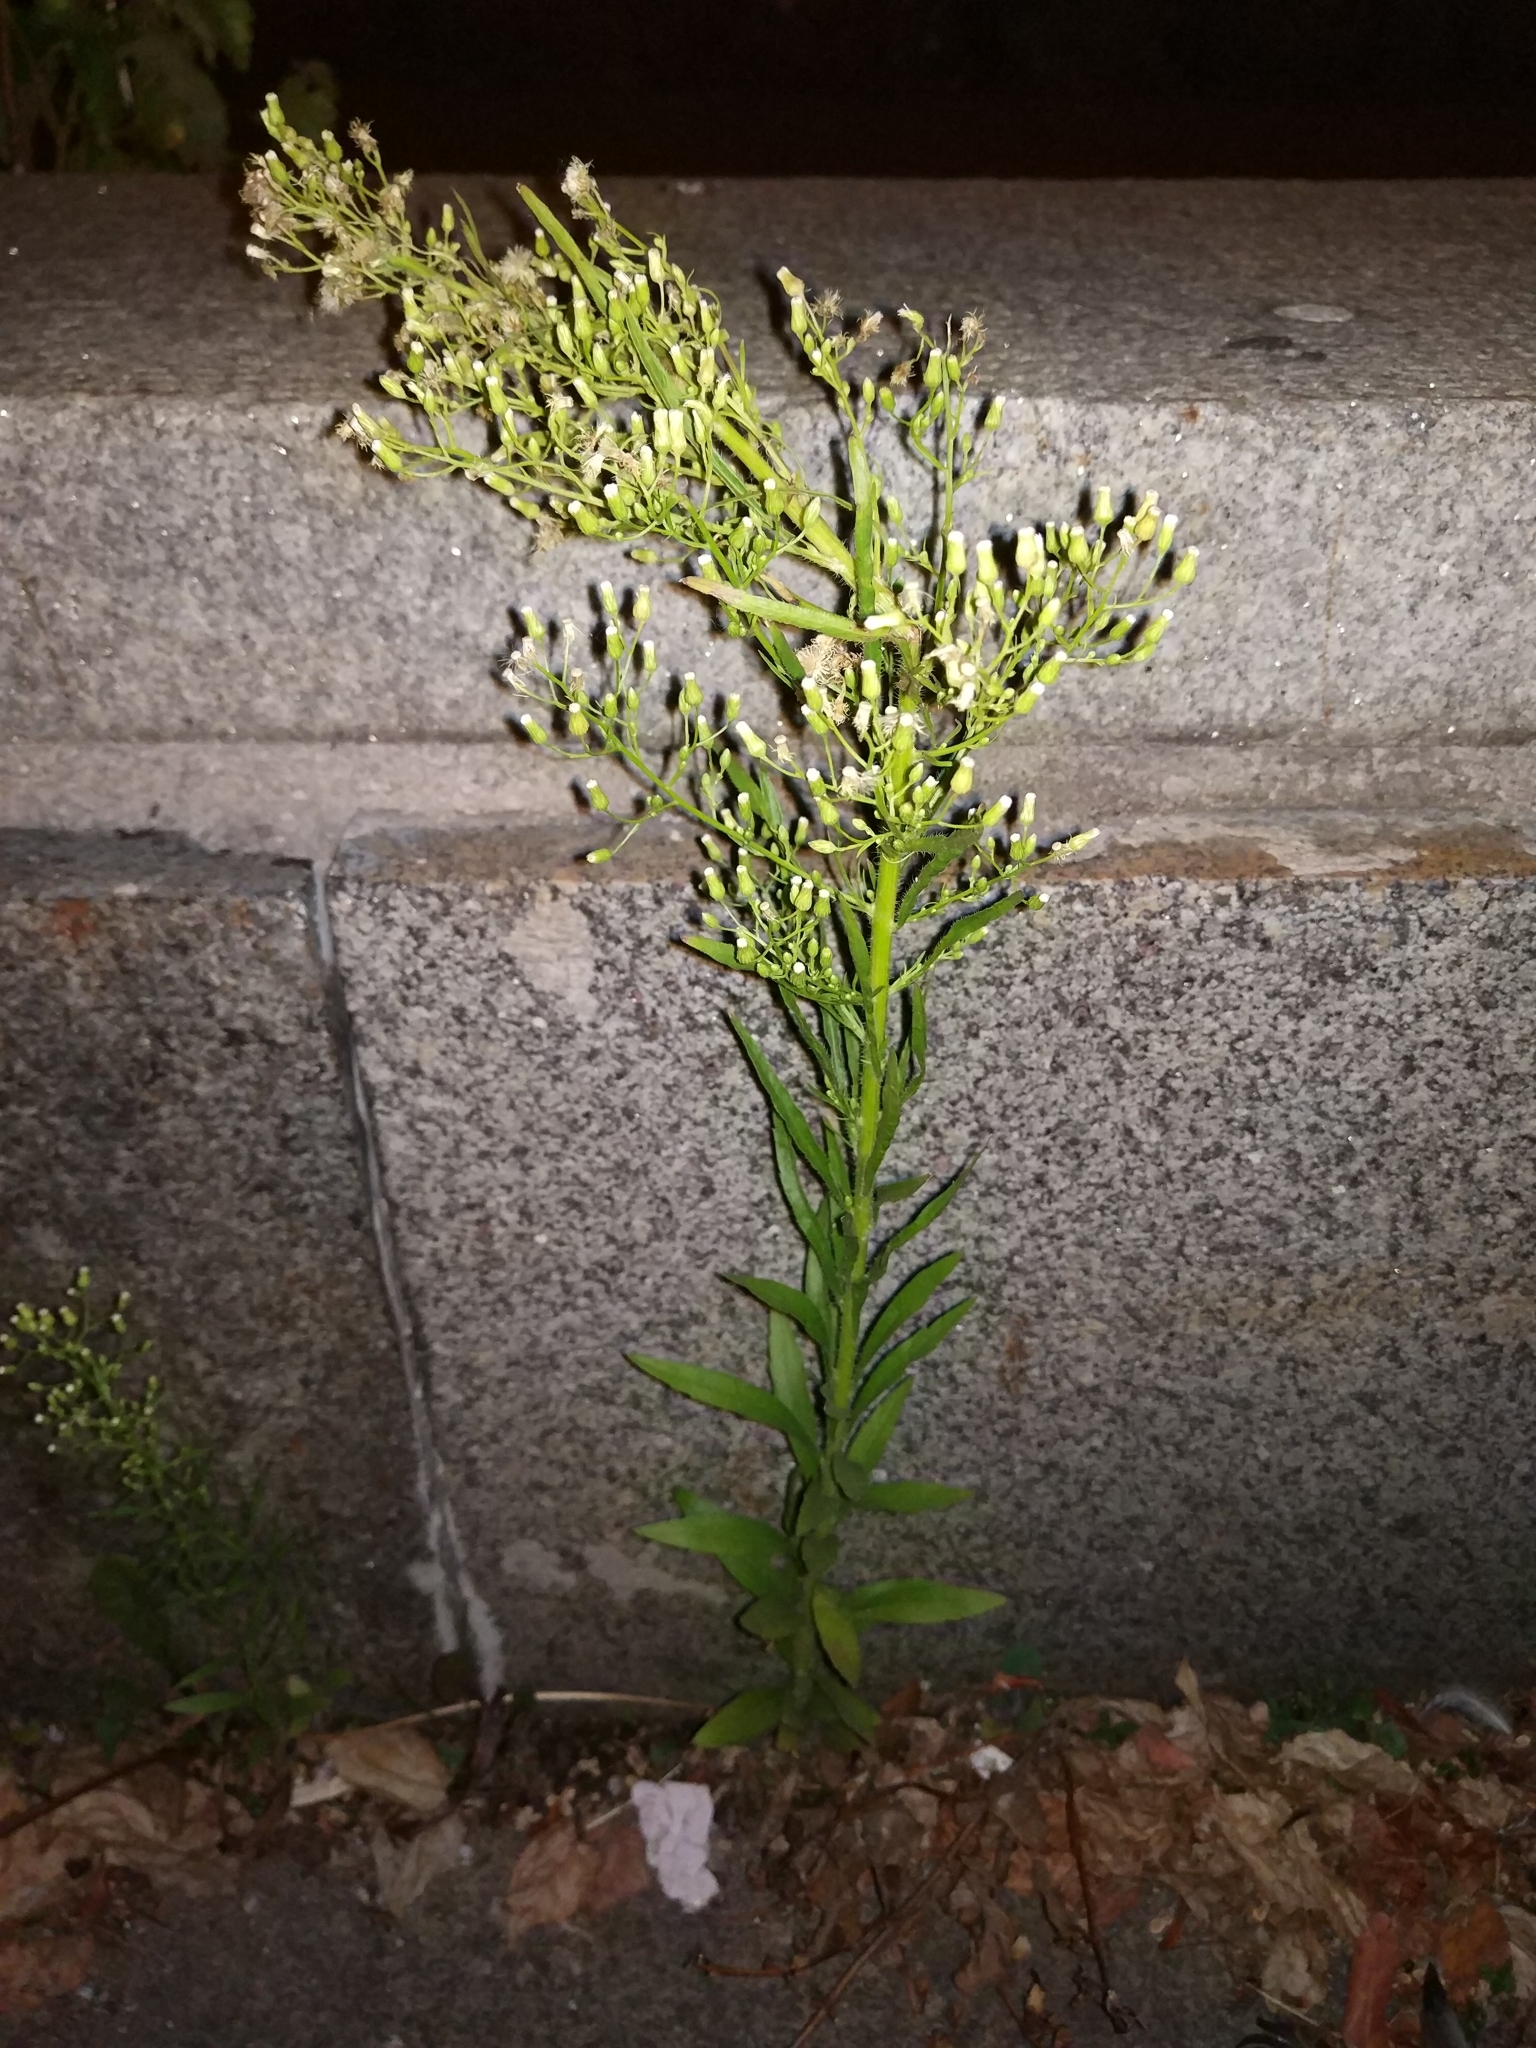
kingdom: Plantae
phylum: Tracheophyta
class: Magnoliopsida
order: Asterales
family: Asteraceae
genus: Erigeron
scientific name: Erigeron canadensis
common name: Canadian fleabane
